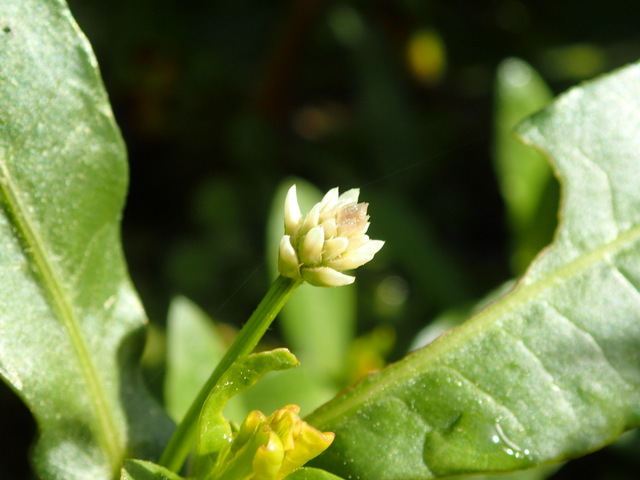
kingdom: Plantae
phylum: Tracheophyta
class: Magnoliopsida
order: Caryophyllales
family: Amaranthaceae
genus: Alternanthera
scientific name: Alternanthera philoxeroides
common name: Alligatorweed
